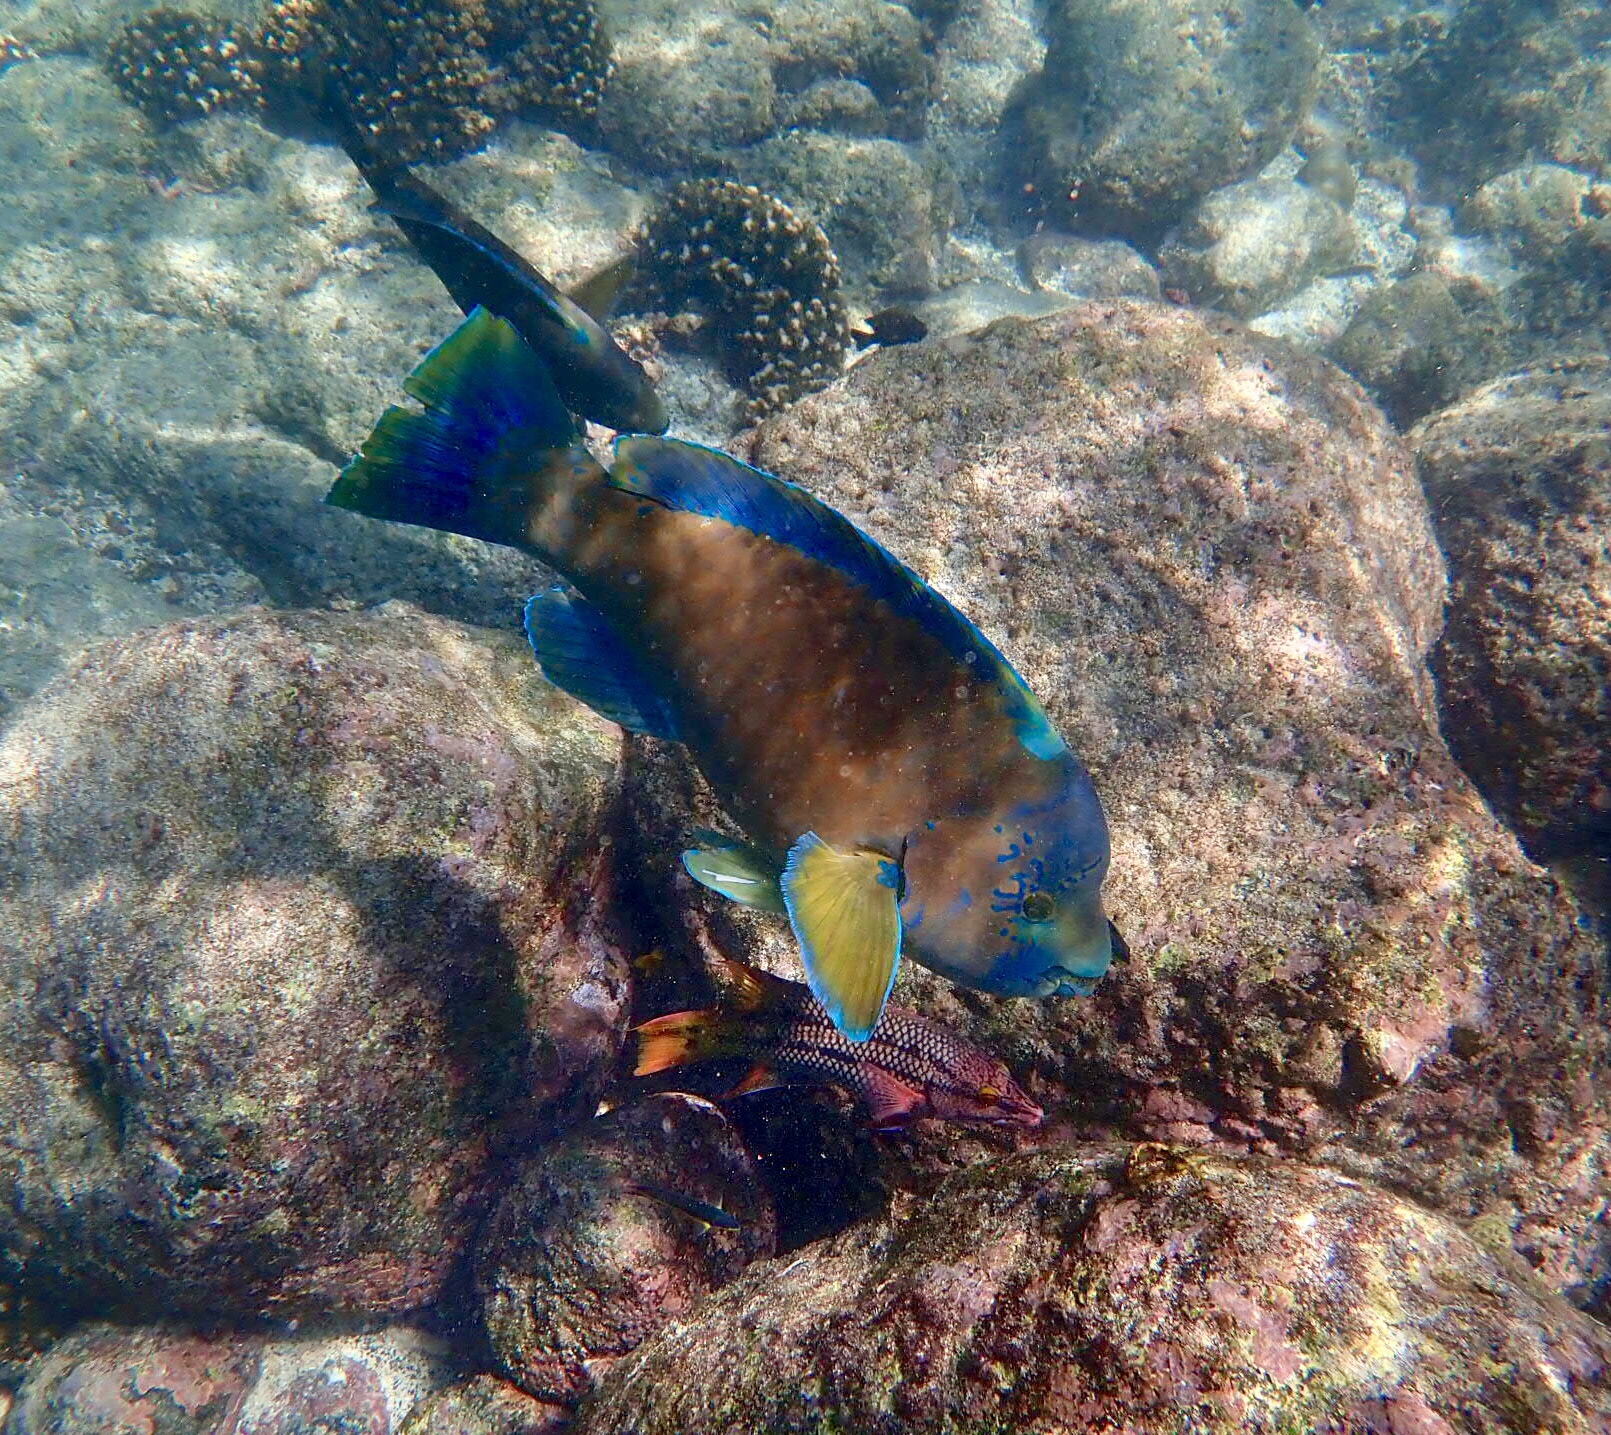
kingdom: Animalia
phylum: Chordata
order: Perciformes
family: Scaridae
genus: Scarus
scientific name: Scarus perrico
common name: Bumphead parrotfish
